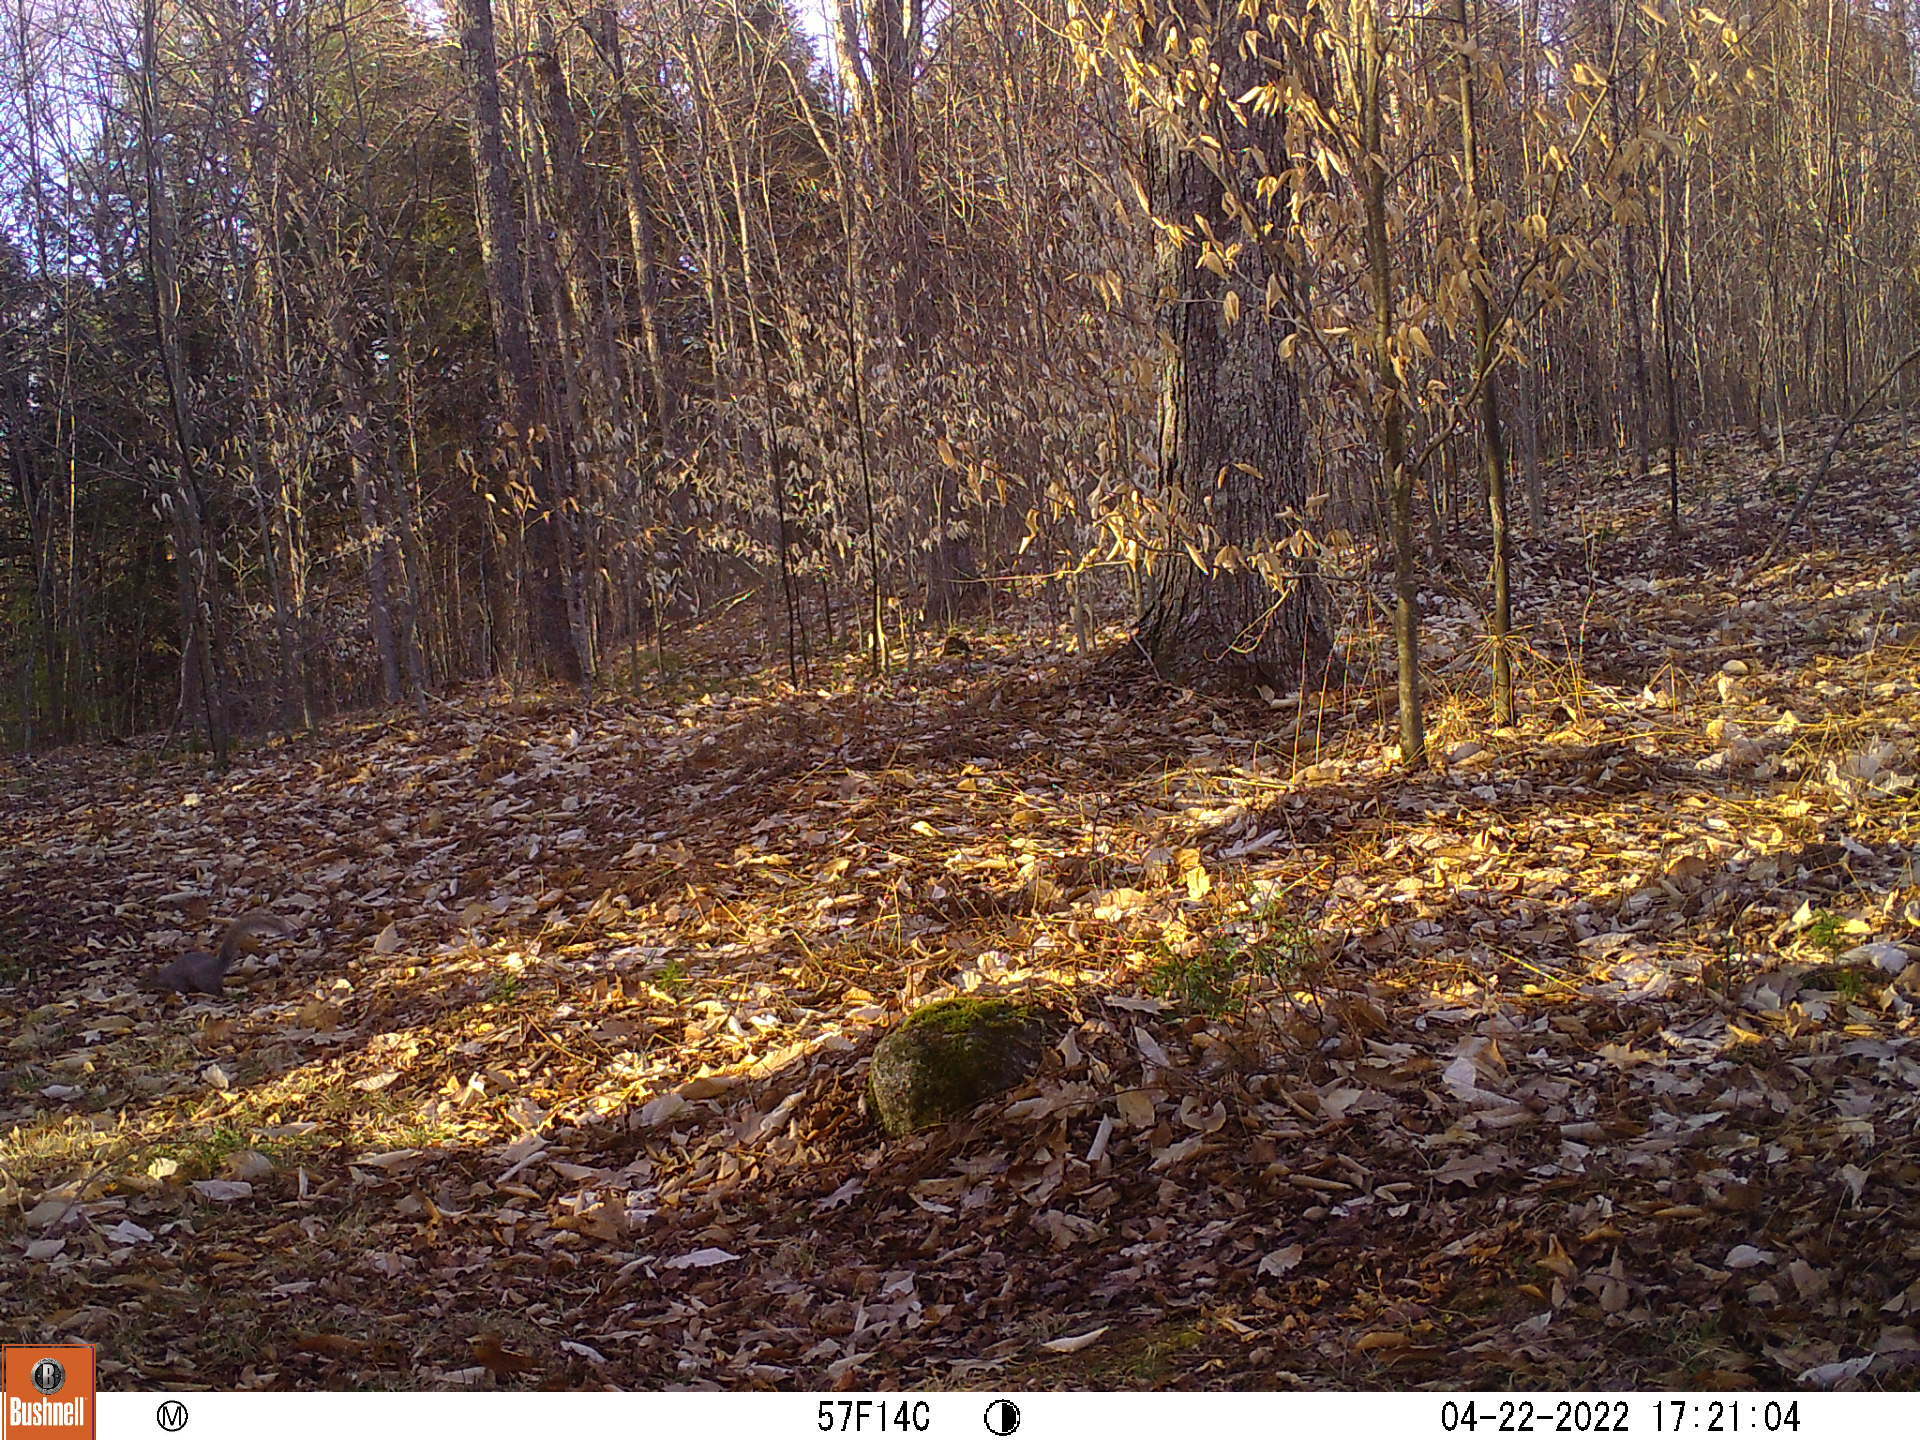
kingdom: Animalia
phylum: Chordata
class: Mammalia
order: Rodentia
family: Sciuridae
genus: Sciurus
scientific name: Sciurus carolinensis
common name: Eastern gray squirrel
